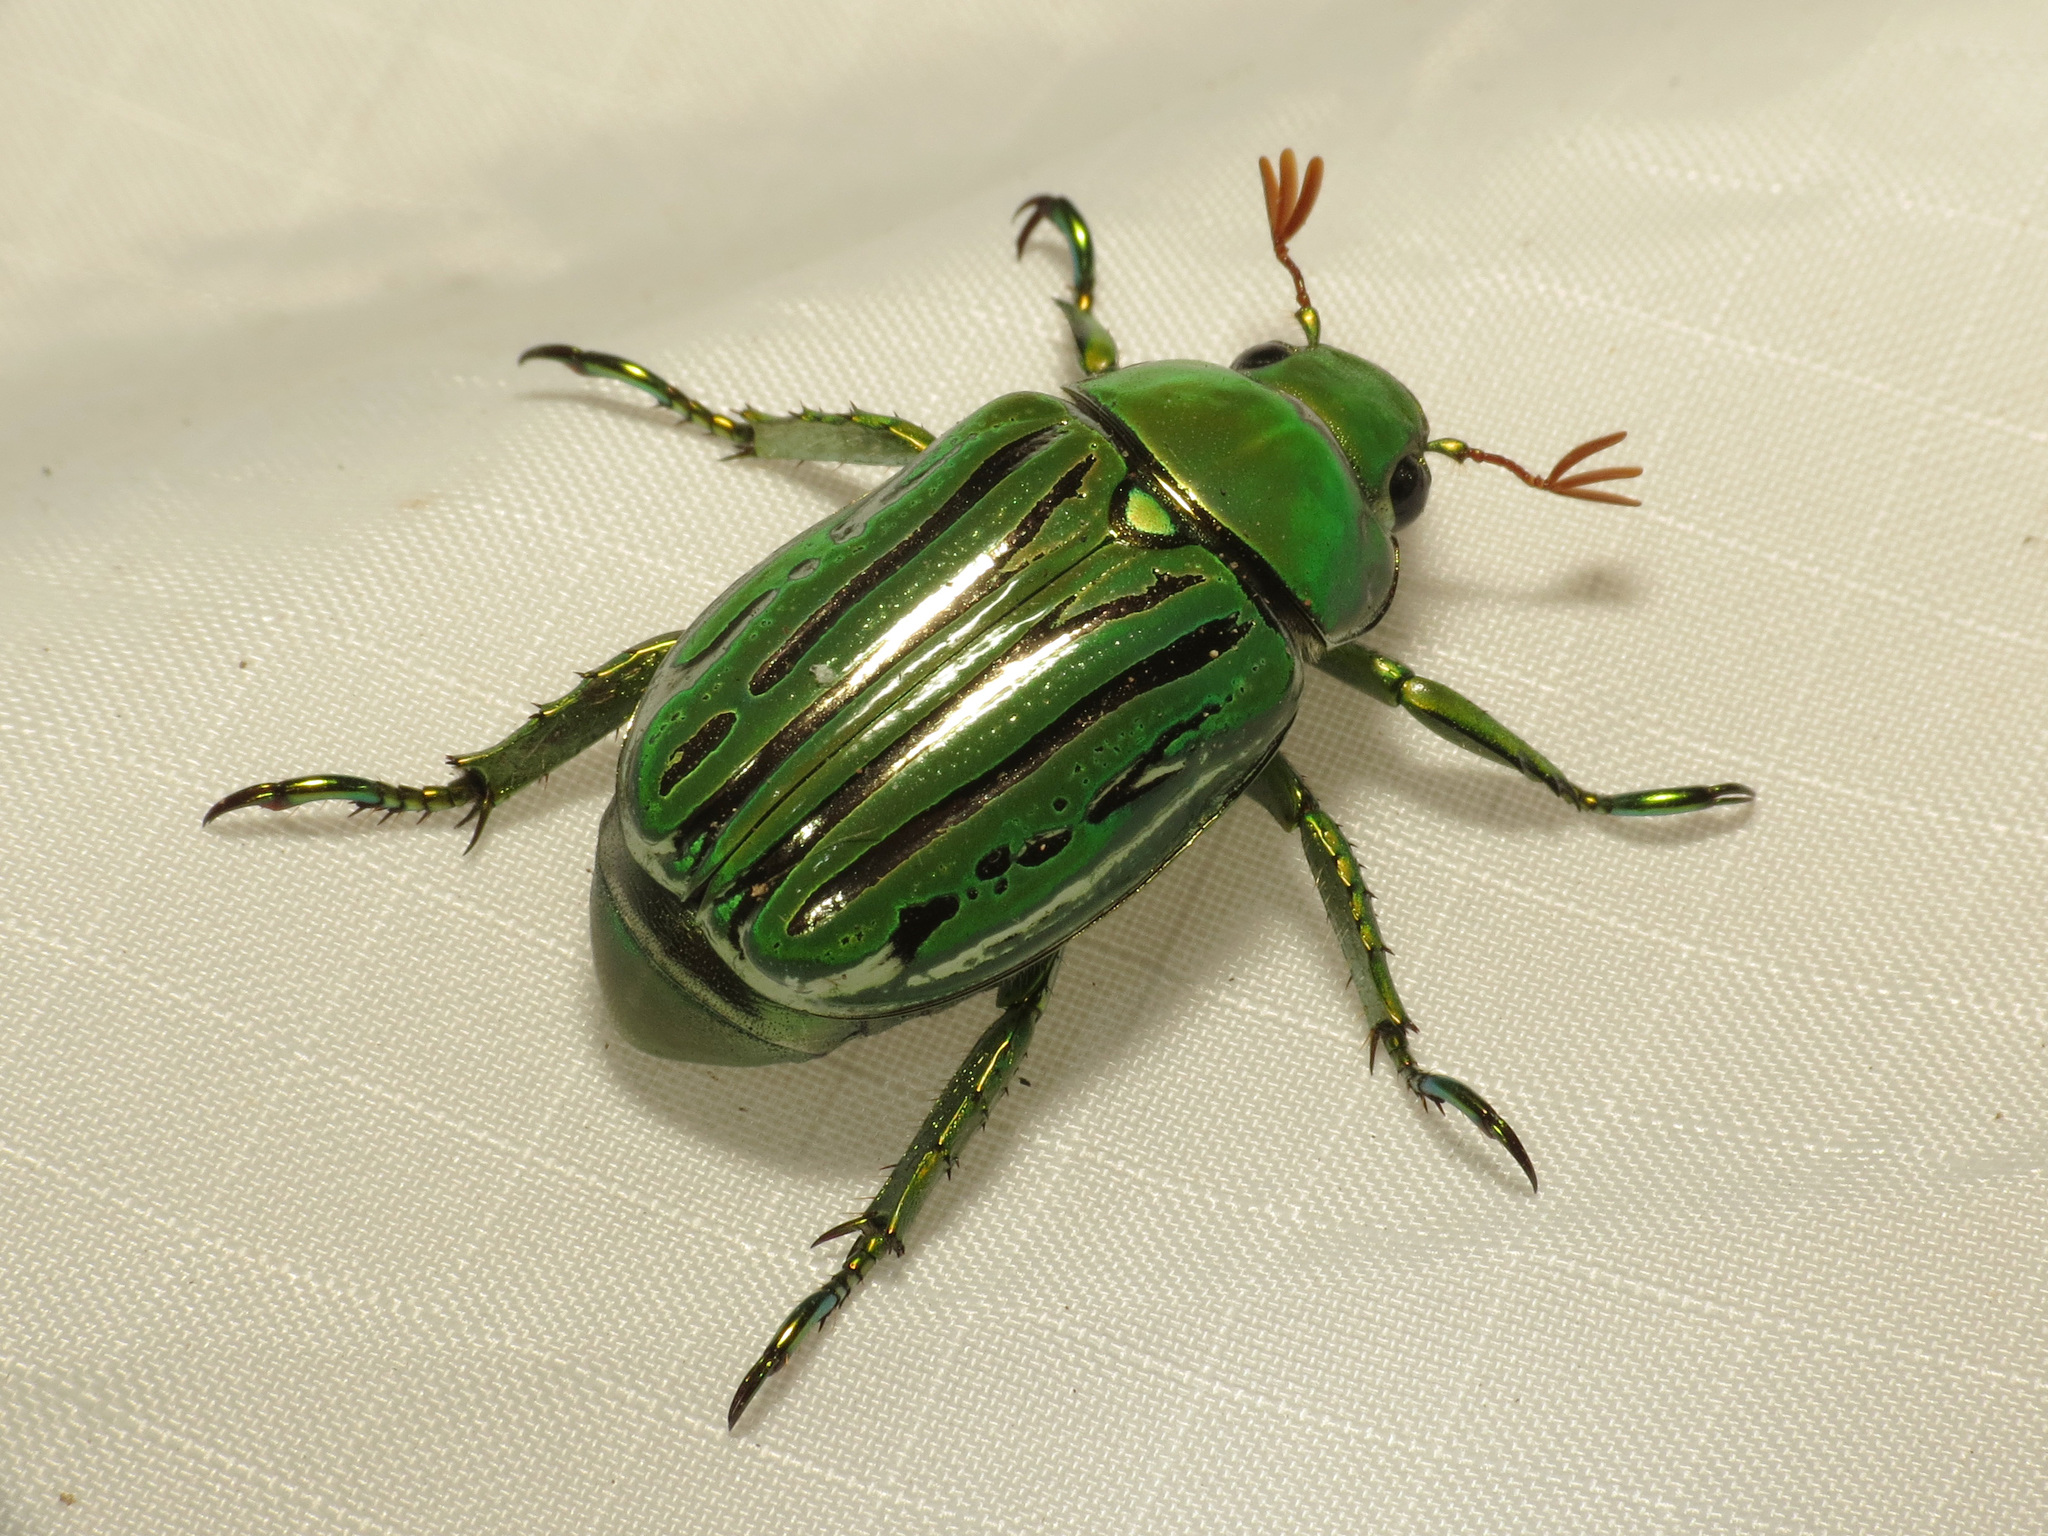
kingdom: Animalia
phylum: Arthropoda
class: Insecta
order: Coleoptera
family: Scarabaeidae
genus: Chrysina
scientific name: Chrysina gloriosa
